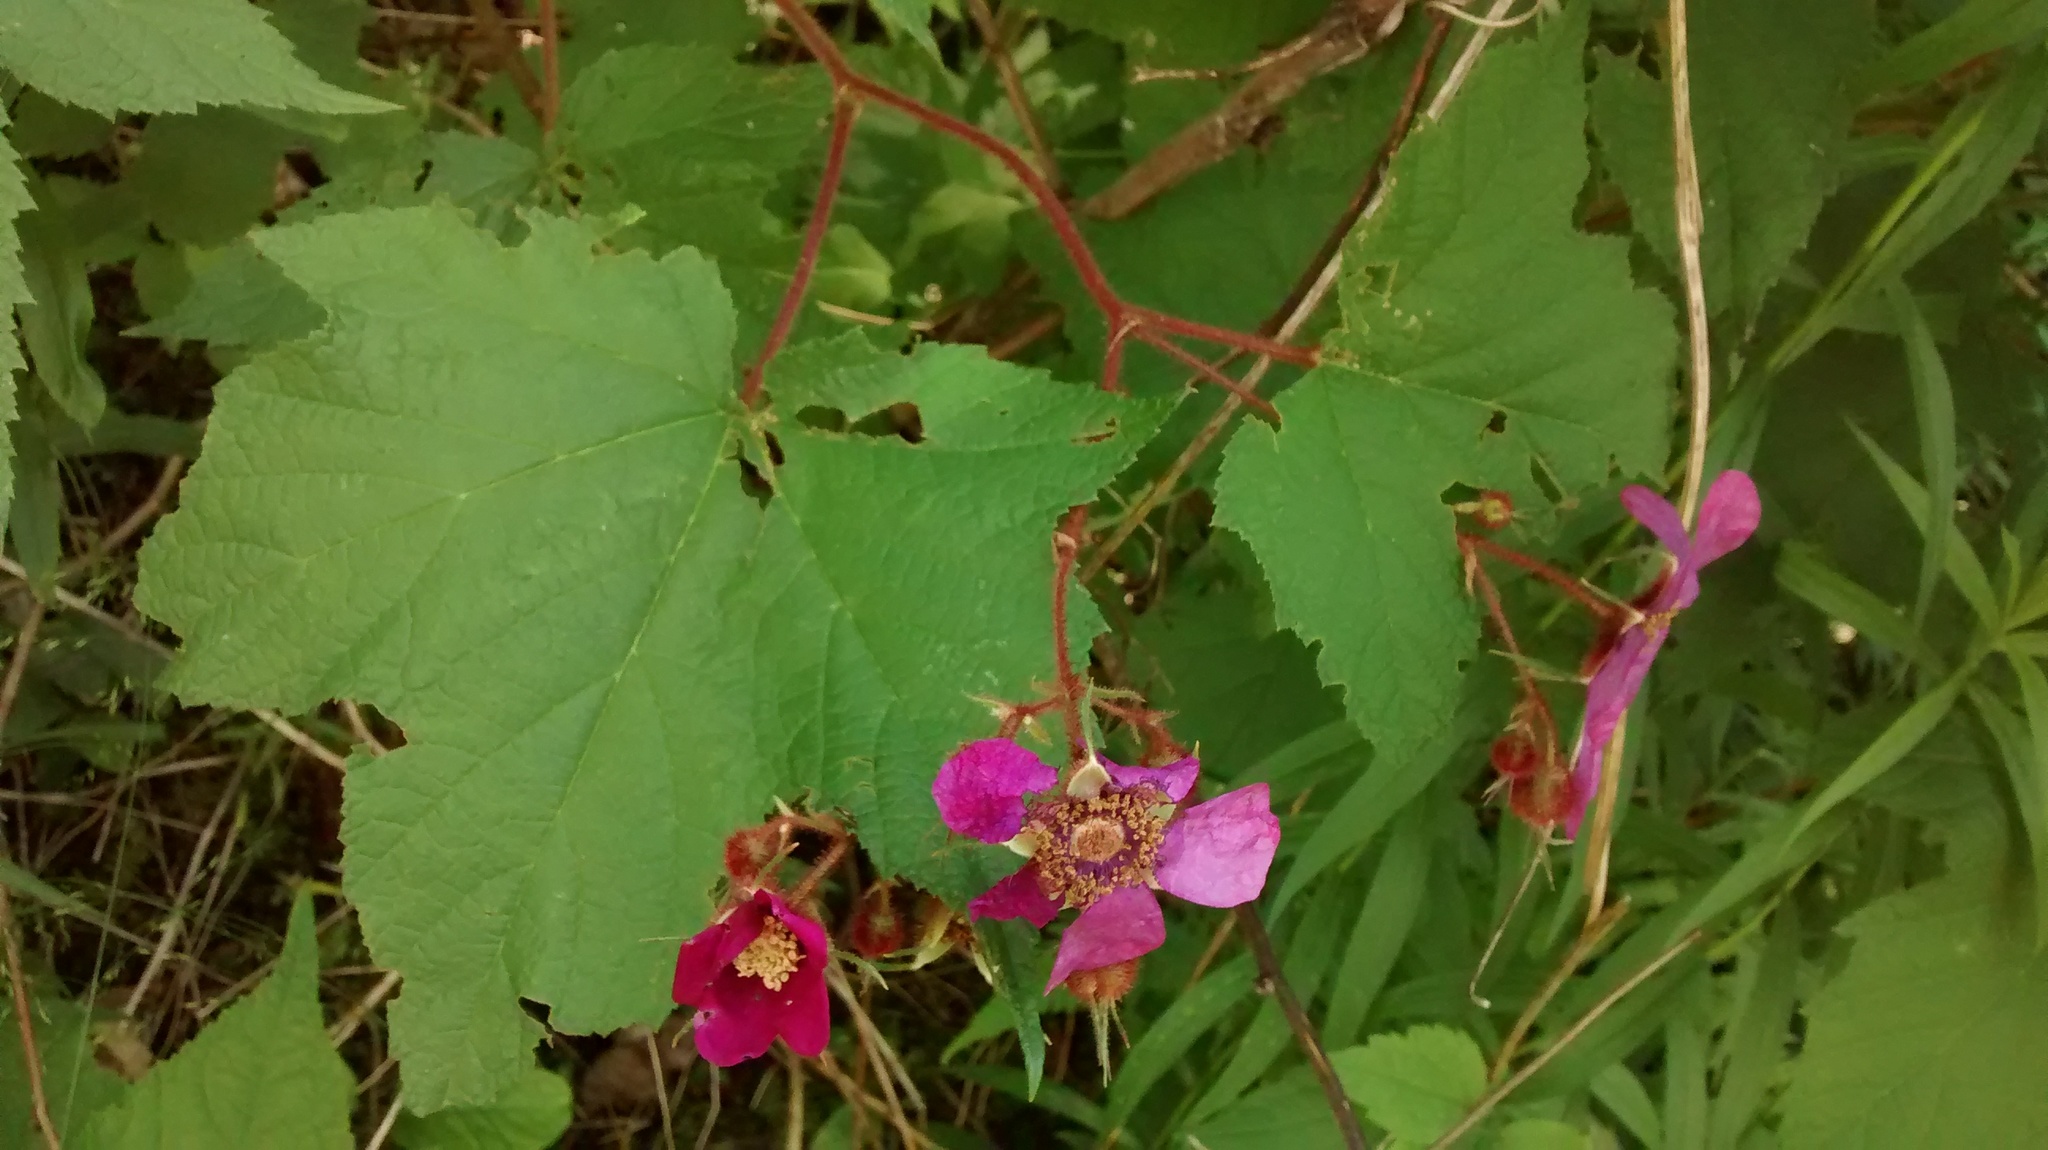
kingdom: Plantae
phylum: Tracheophyta
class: Magnoliopsida
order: Rosales
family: Rosaceae
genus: Rubus
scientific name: Rubus odoratus
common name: Purple-flowered raspberry
